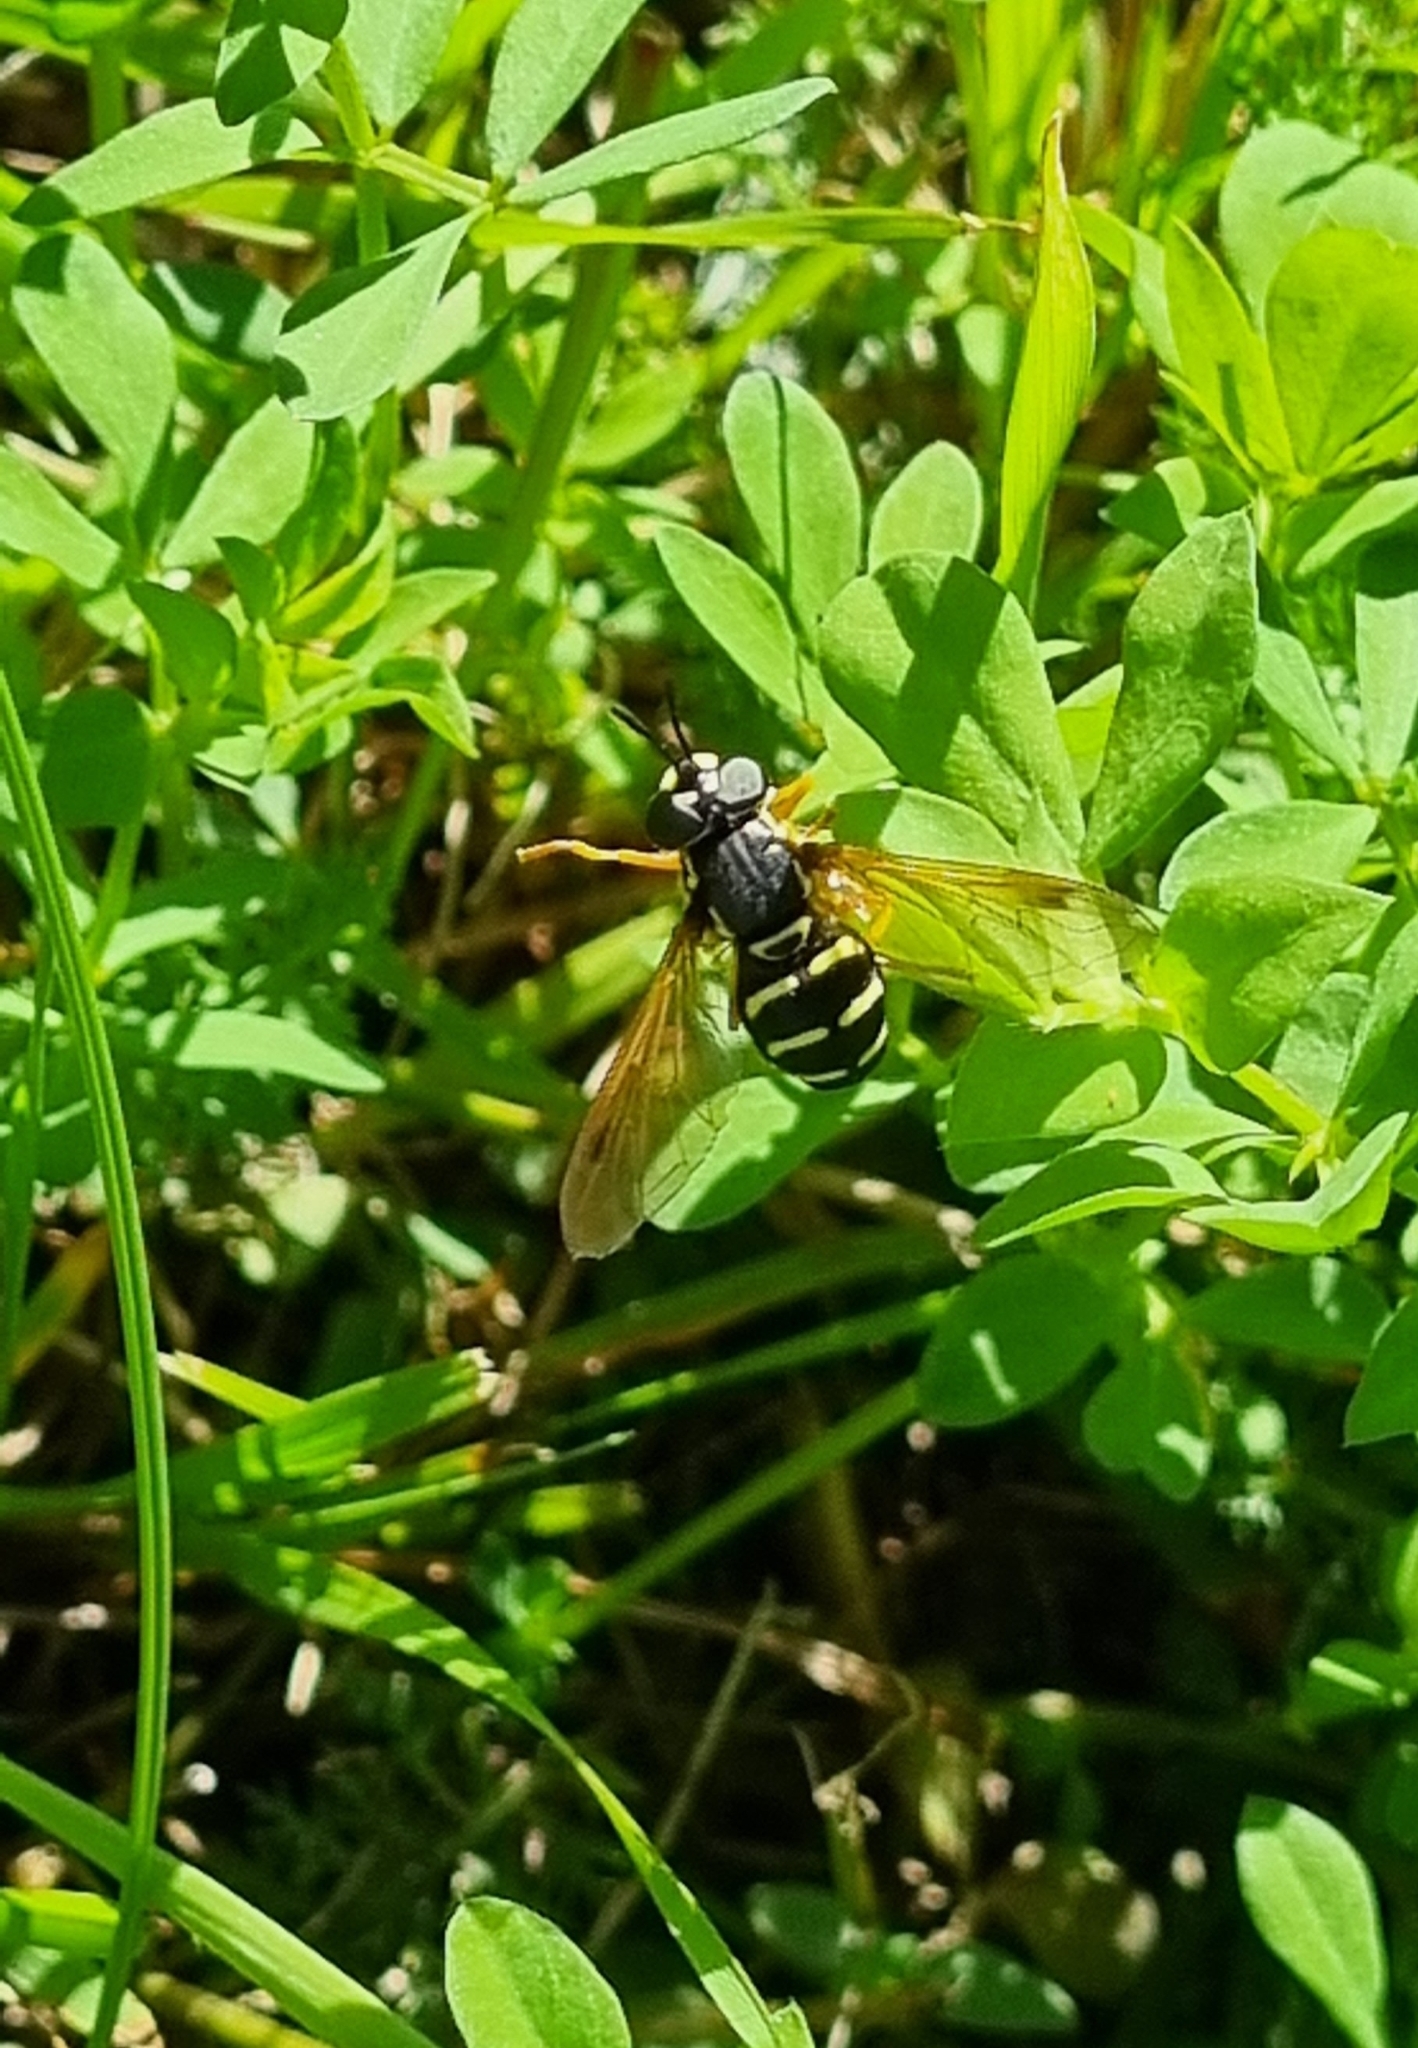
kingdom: Animalia
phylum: Arthropoda
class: Insecta
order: Diptera
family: Syrphidae
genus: Chrysotoxum
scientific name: Chrysotoxum festivum
